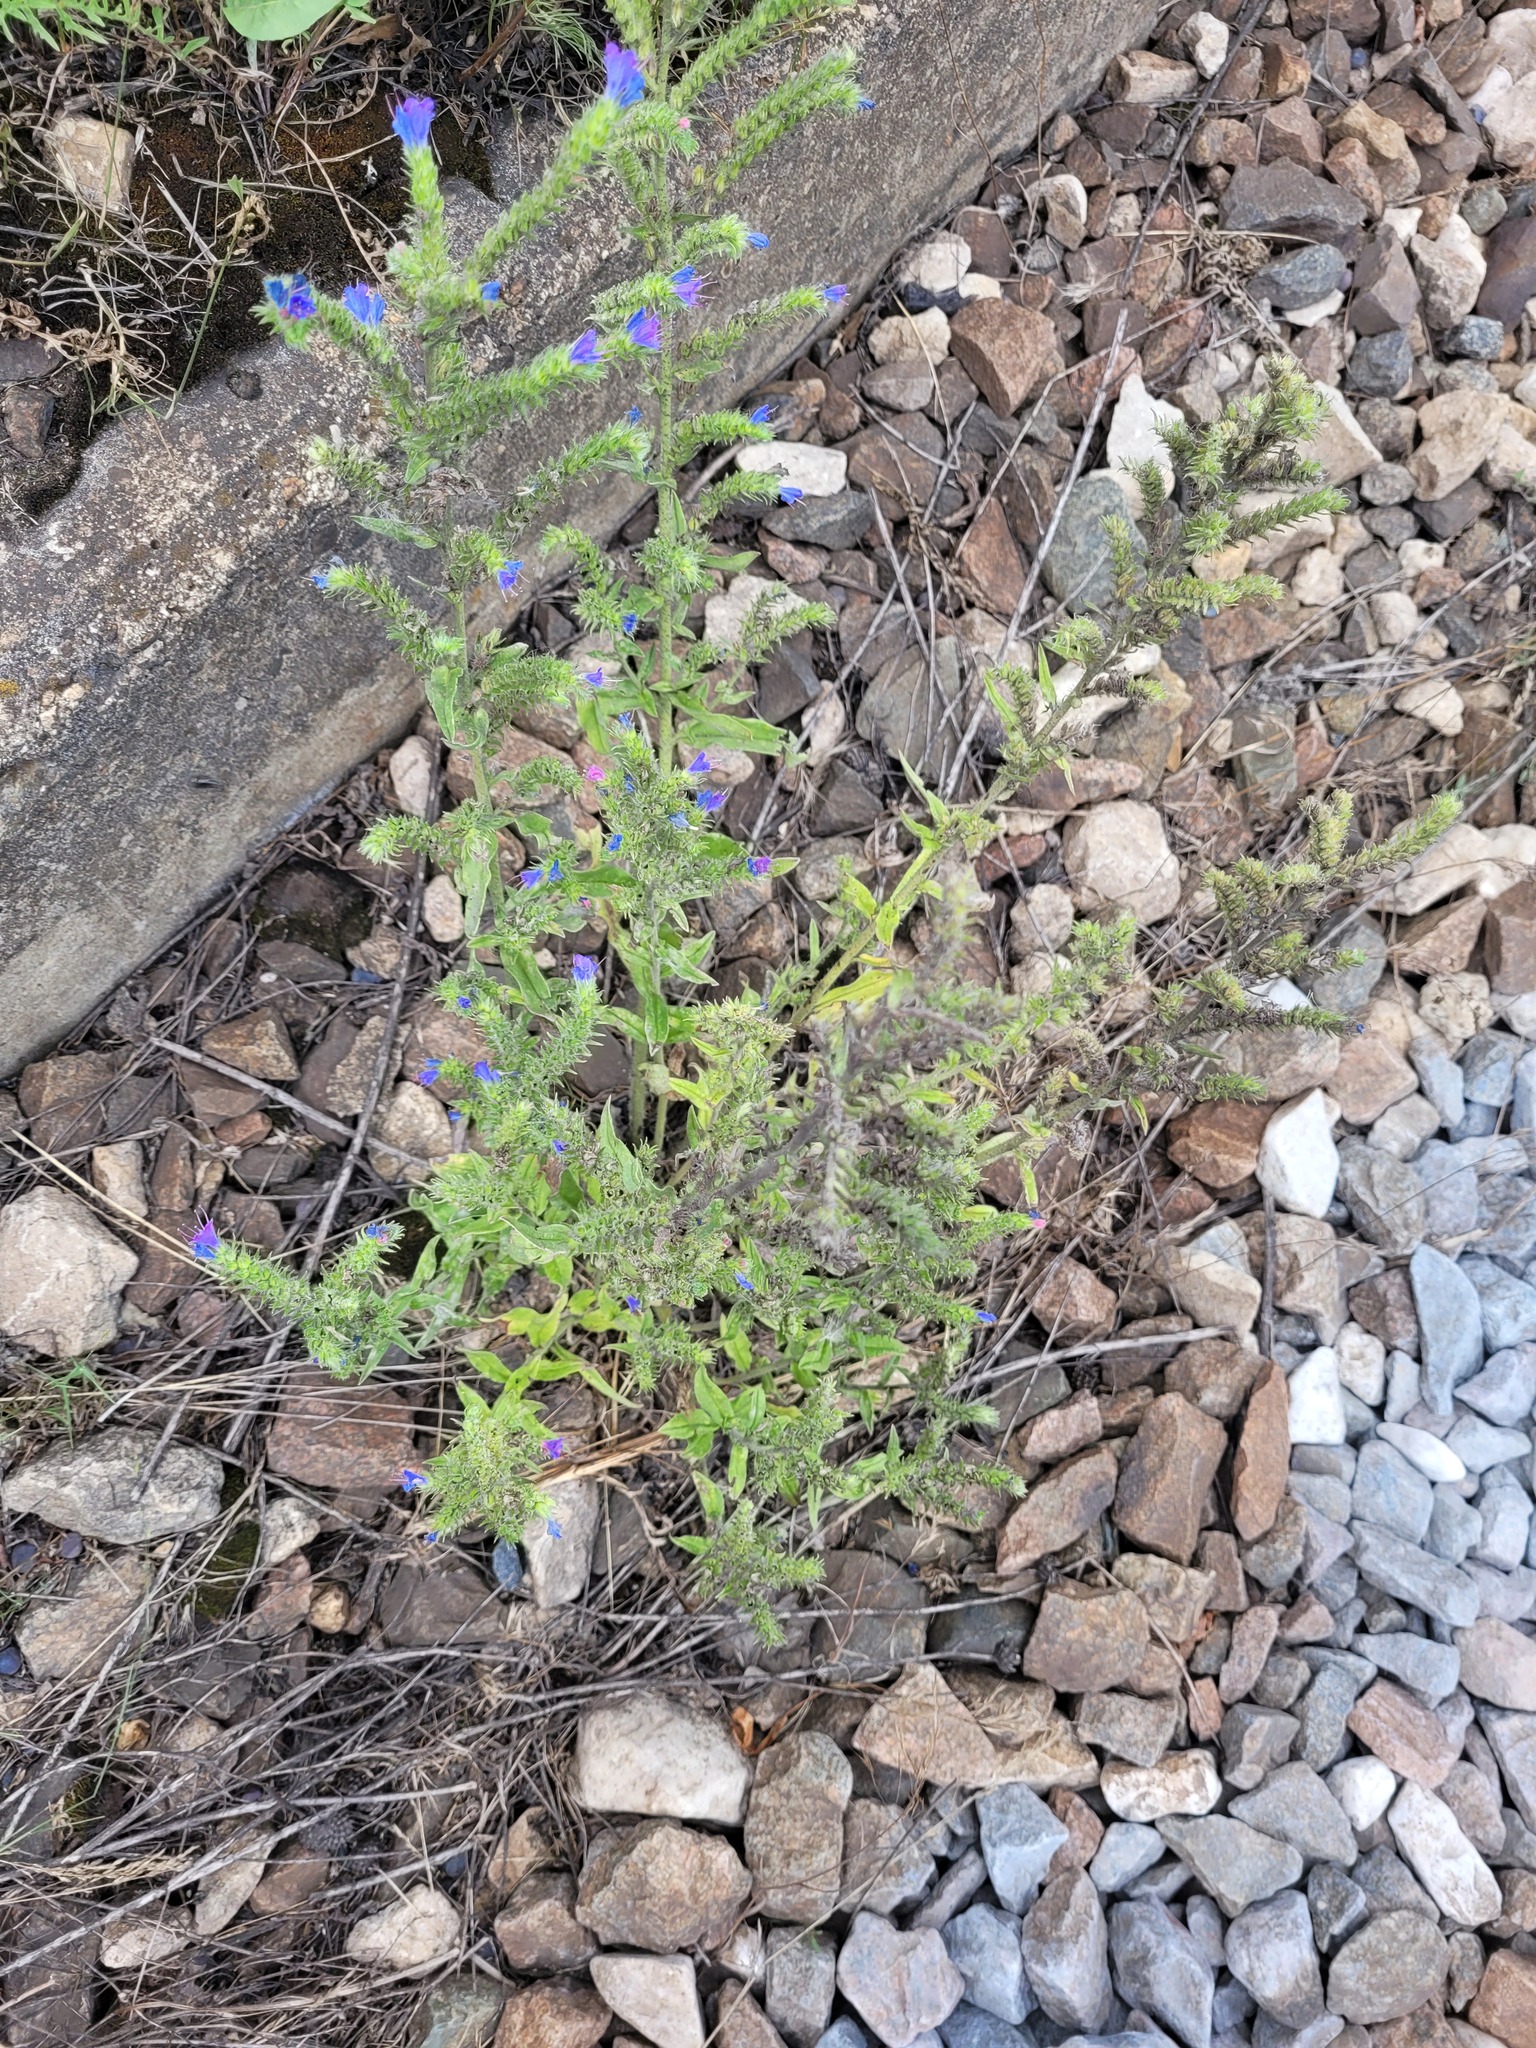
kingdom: Plantae
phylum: Tracheophyta
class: Magnoliopsida
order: Boraginales
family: Boraginaceae
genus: Echium
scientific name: Echium vulgare
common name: Common viper's bugloss
